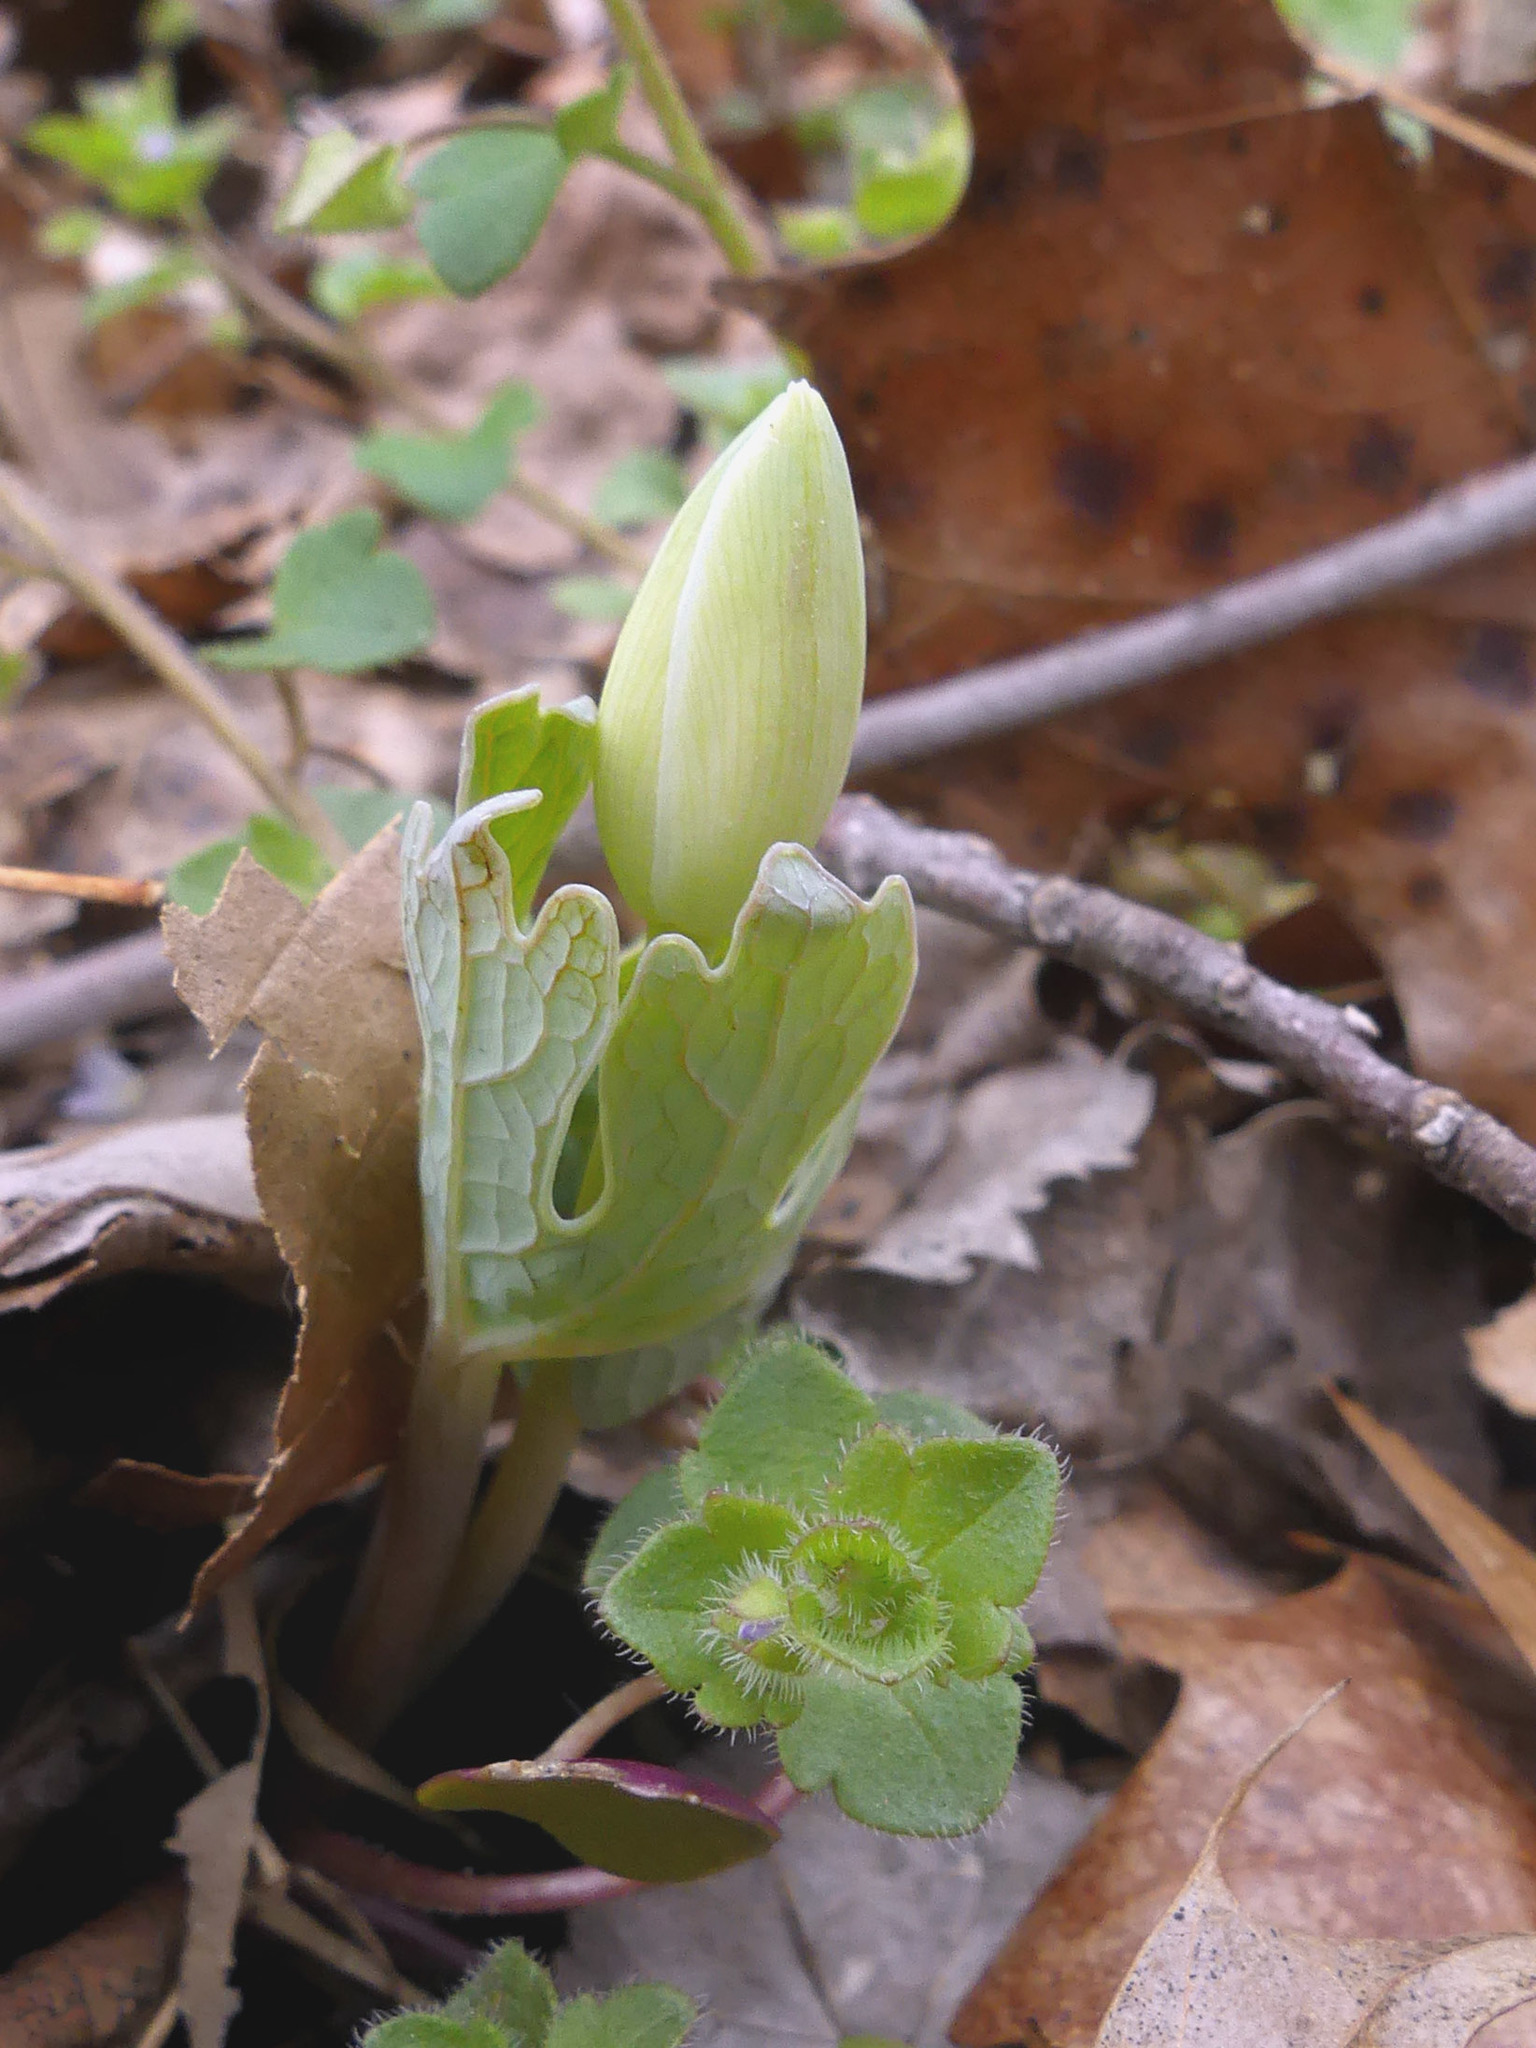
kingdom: Plantae
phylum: Tracheophyta
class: Magnoliopsida
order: Ranunculales
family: Papaveraceae
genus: Sanguinaria
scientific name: Sanguinaria canadensis
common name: Bloodroot
